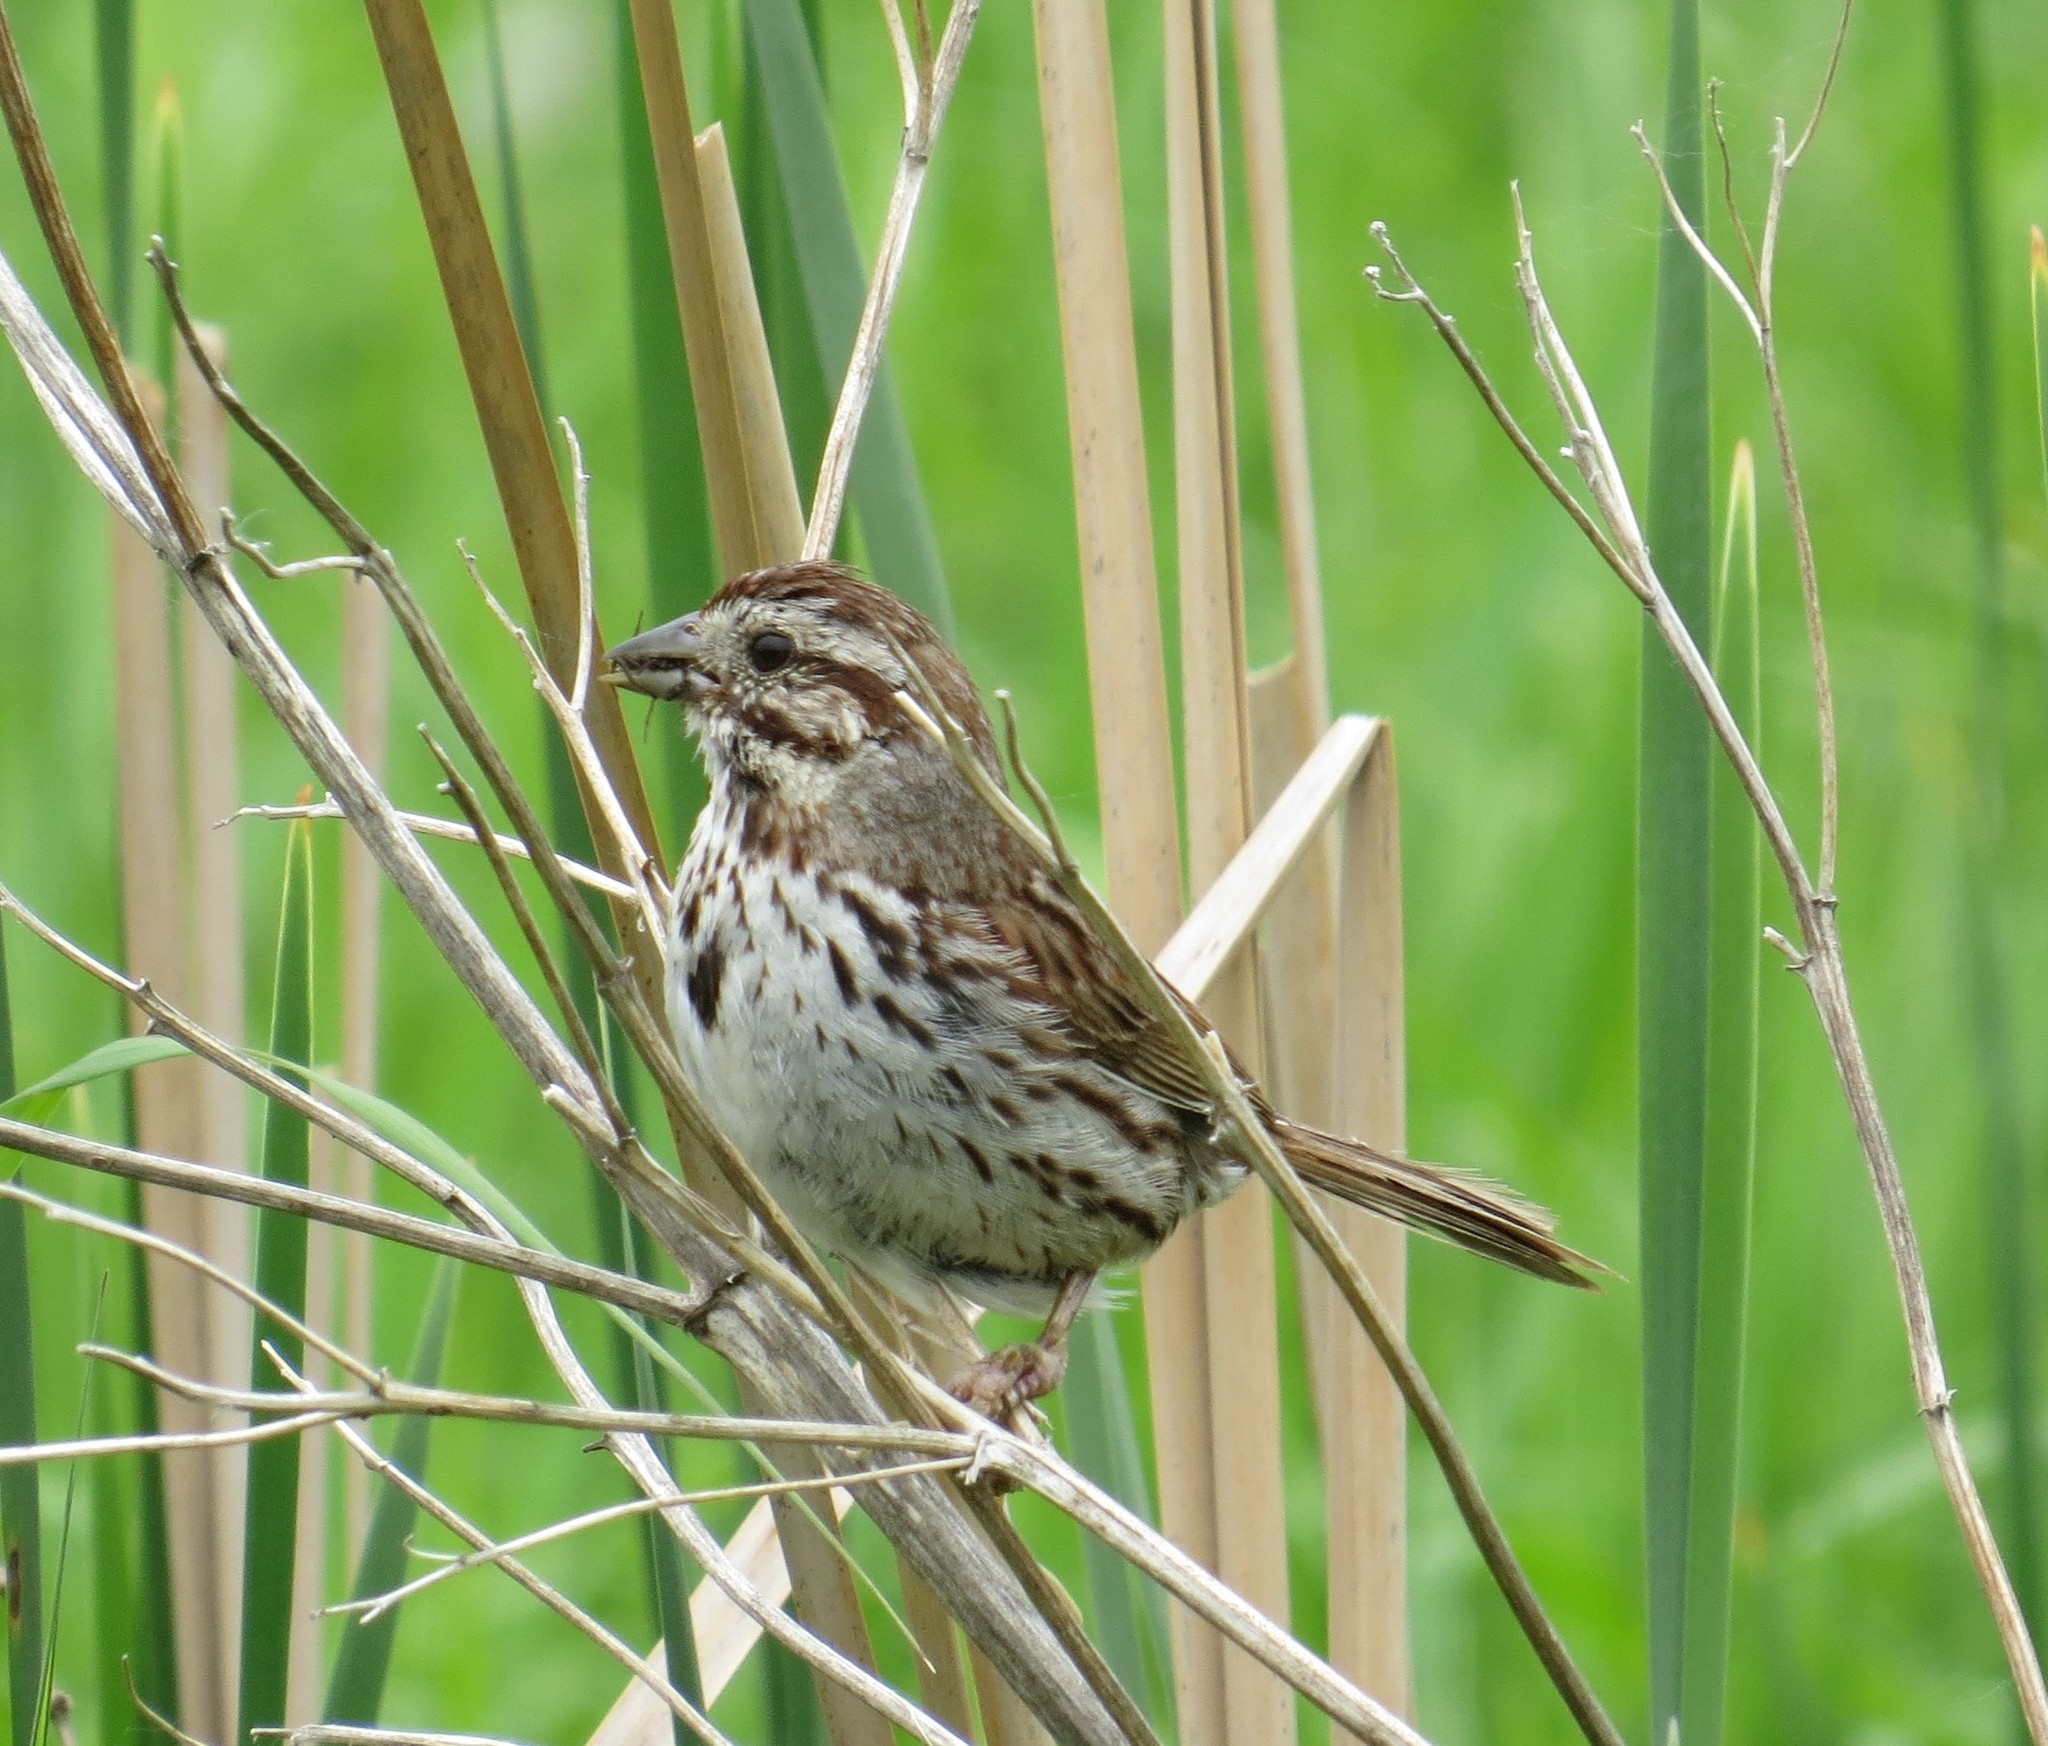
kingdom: Animalia
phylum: Chordata
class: Aves
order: Passeriformes
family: Passerellidae
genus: Melospiza
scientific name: Melospiza melodia
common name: Song sparrow
